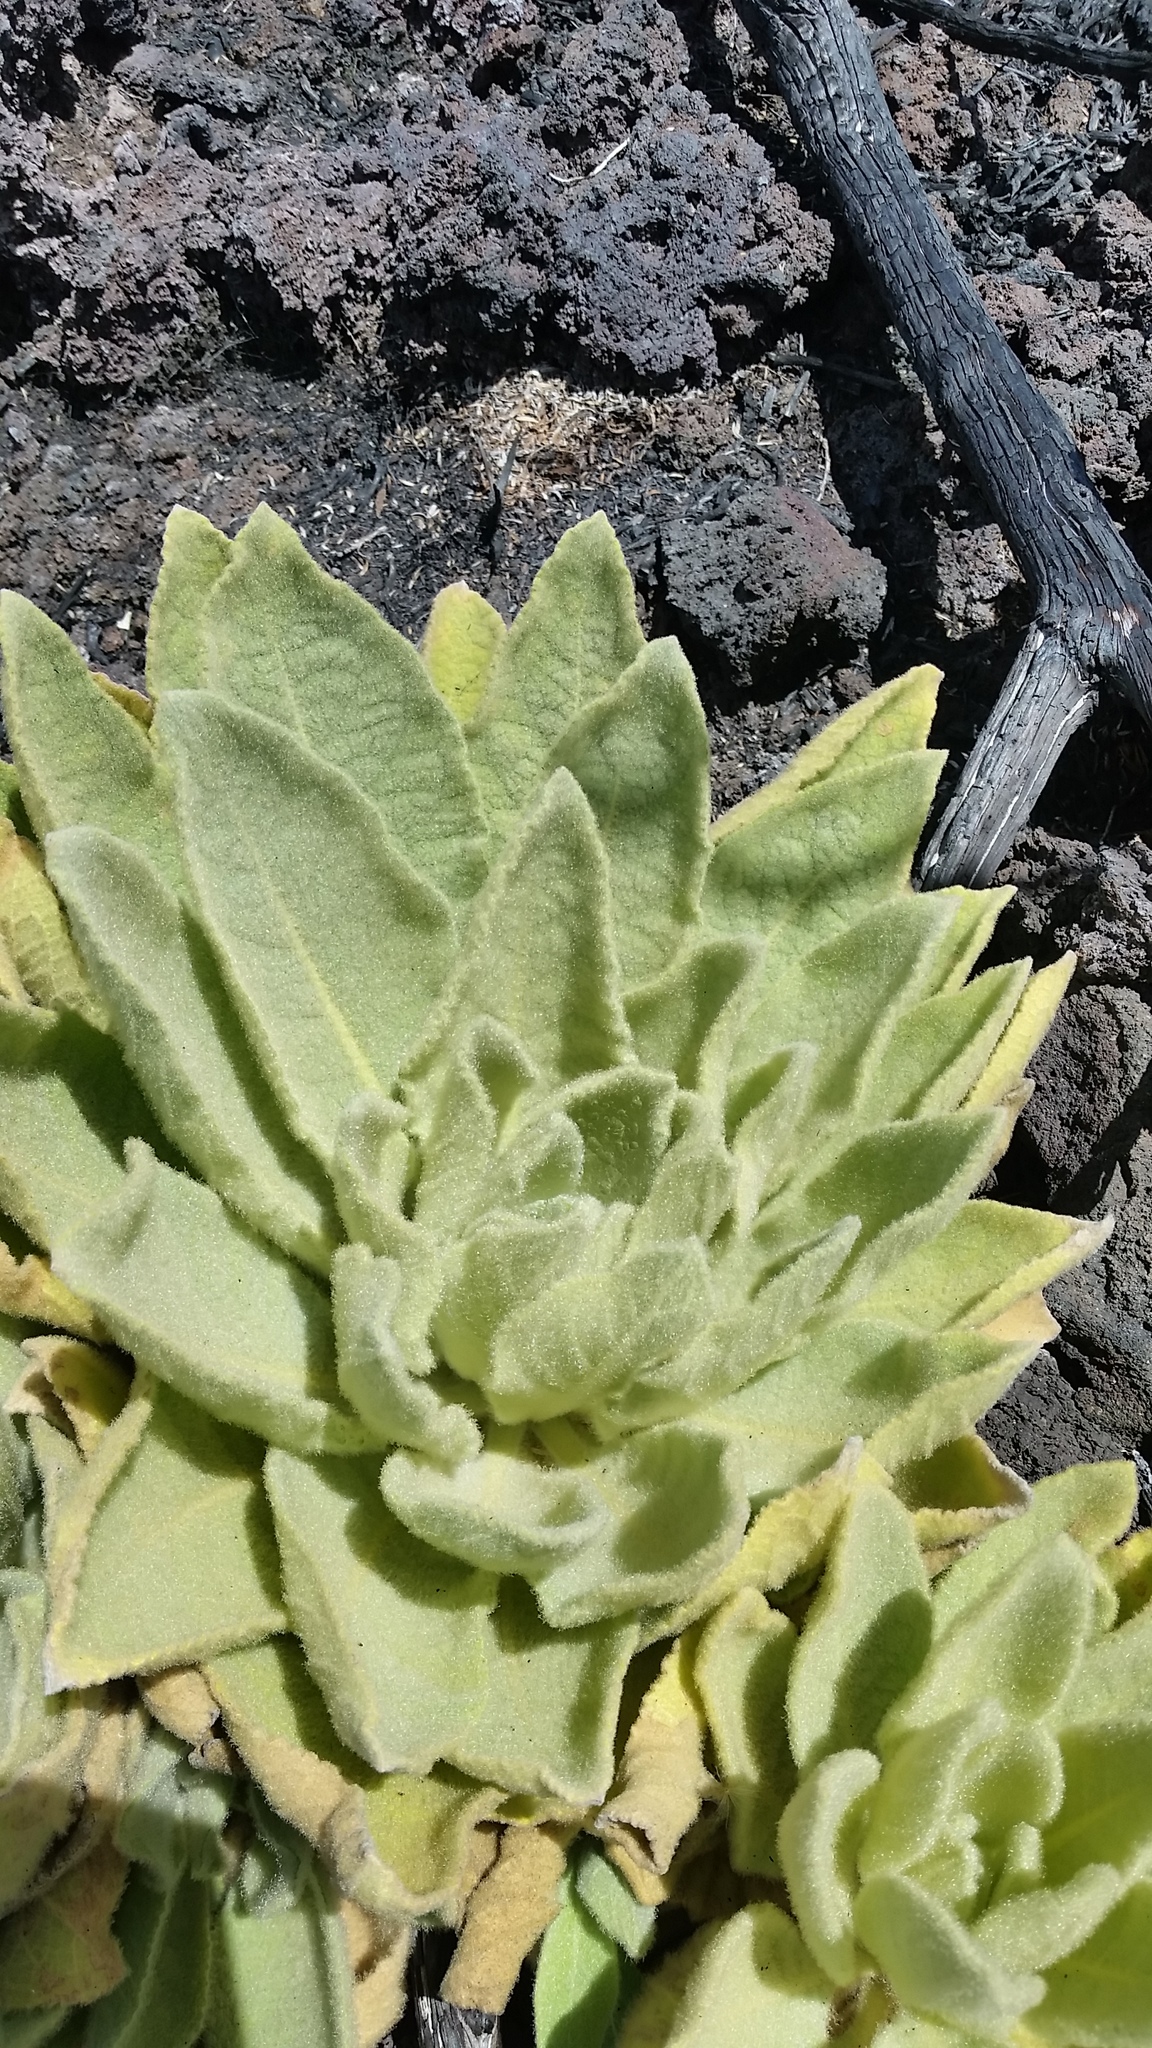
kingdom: Plantae
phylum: Tracheophyta
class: Magnoliopsida
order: Lamiales
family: Scrophulariaceae
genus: Verbascum
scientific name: Verbascum thapsus
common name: Common mullein
